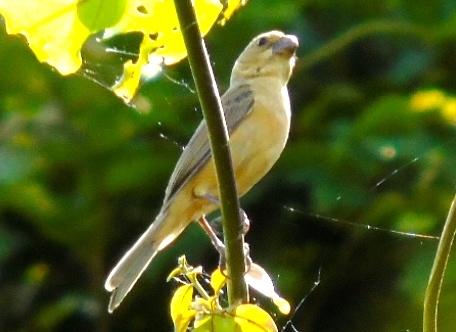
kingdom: Animalia
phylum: Chordata
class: Aves
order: Passeriformes
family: Thraupidae
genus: Sporophila
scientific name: Sporophila torqueola
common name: White-collared seedeater
